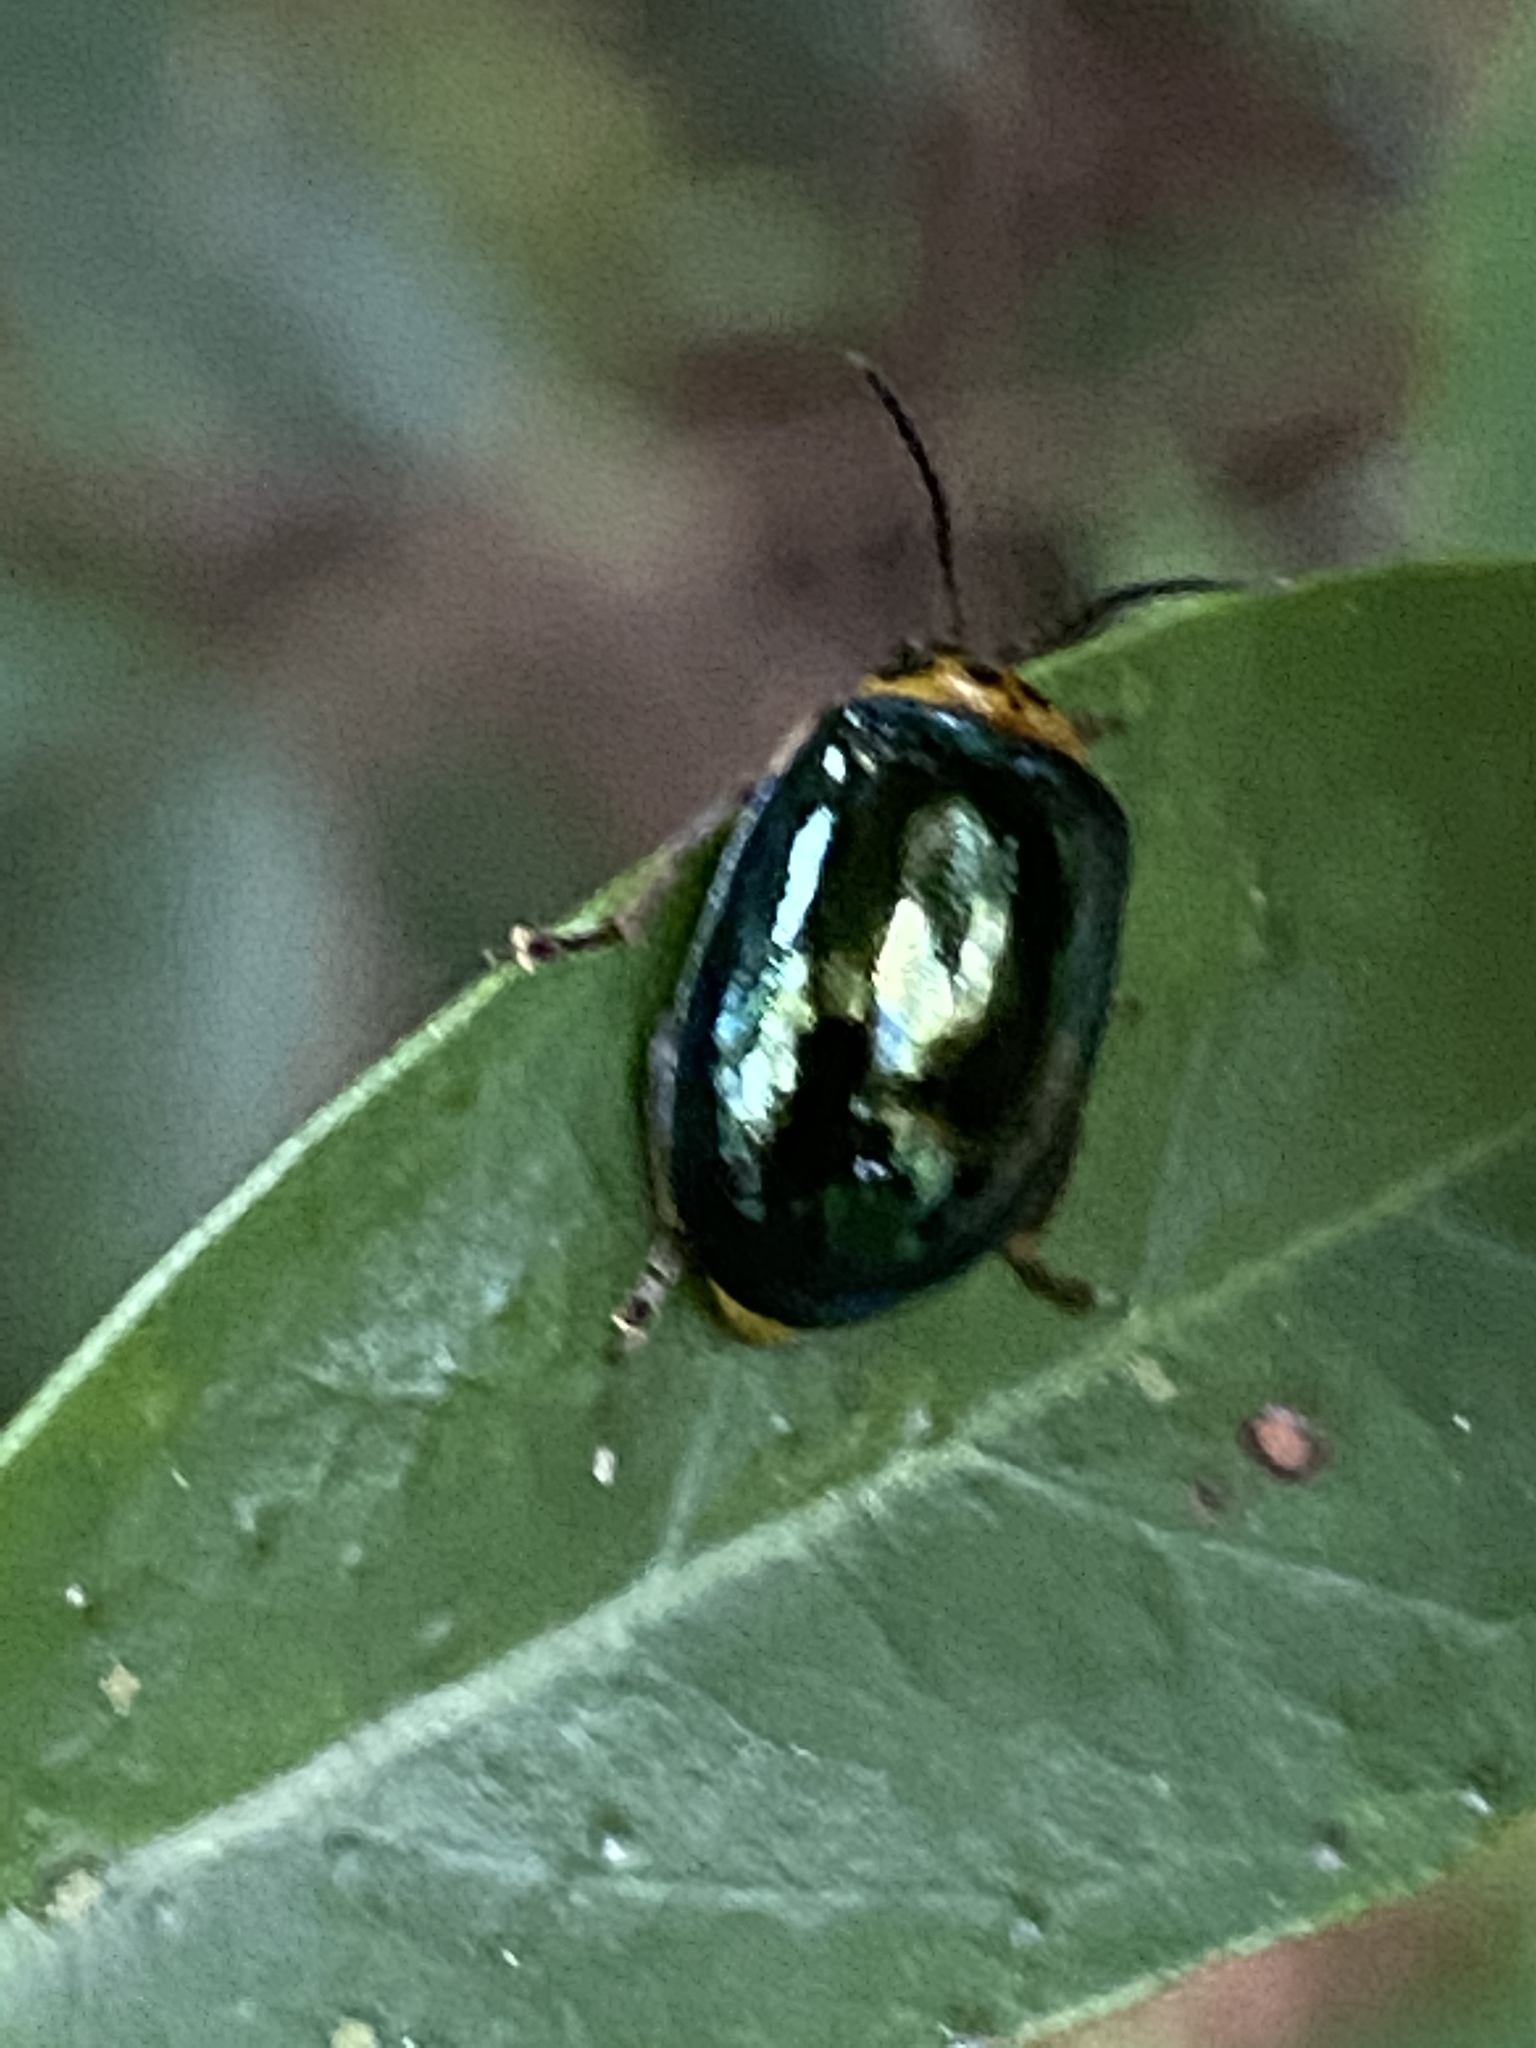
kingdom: Animalia
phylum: Arthropoda
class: Insecta
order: Coleoptera
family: Chrysomelidae
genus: Morphosphaera
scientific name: Morphosphaera chrysomeloides
